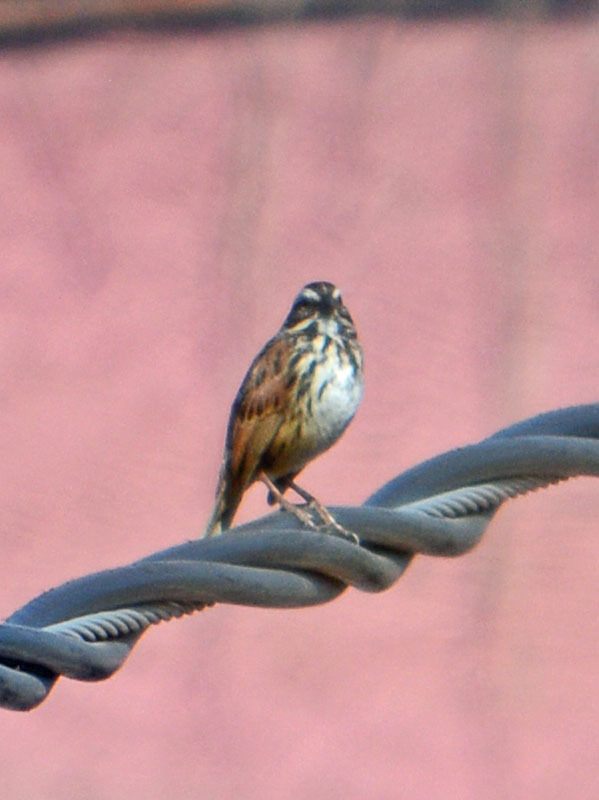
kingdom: Animalia
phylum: Chordata
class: Aves
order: Passeriformes
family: Passerellidae
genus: Melospiza
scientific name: Melospiza melodia
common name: Song sparrow
